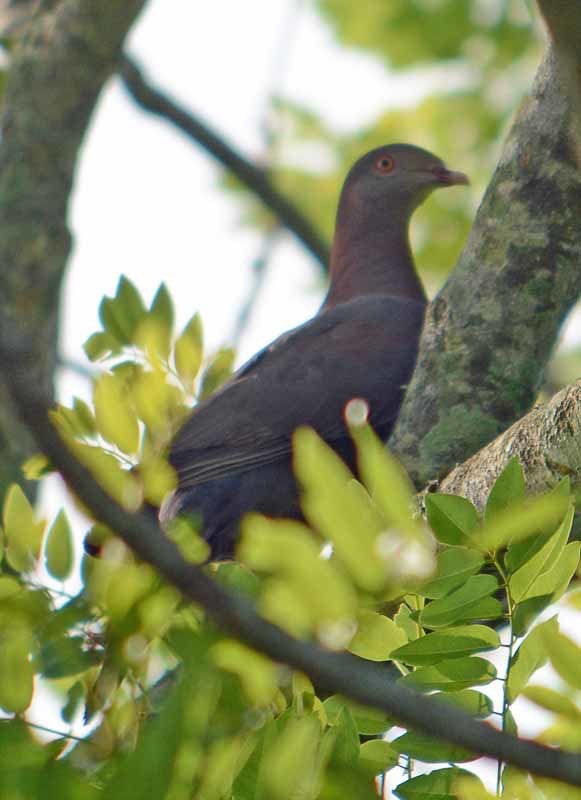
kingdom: Animalia
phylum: Chordata
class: Aves
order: Columbiformes
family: Columbidae
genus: Patagioenas
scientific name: Patagioenas flavirostris
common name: Red-billed pigeon
